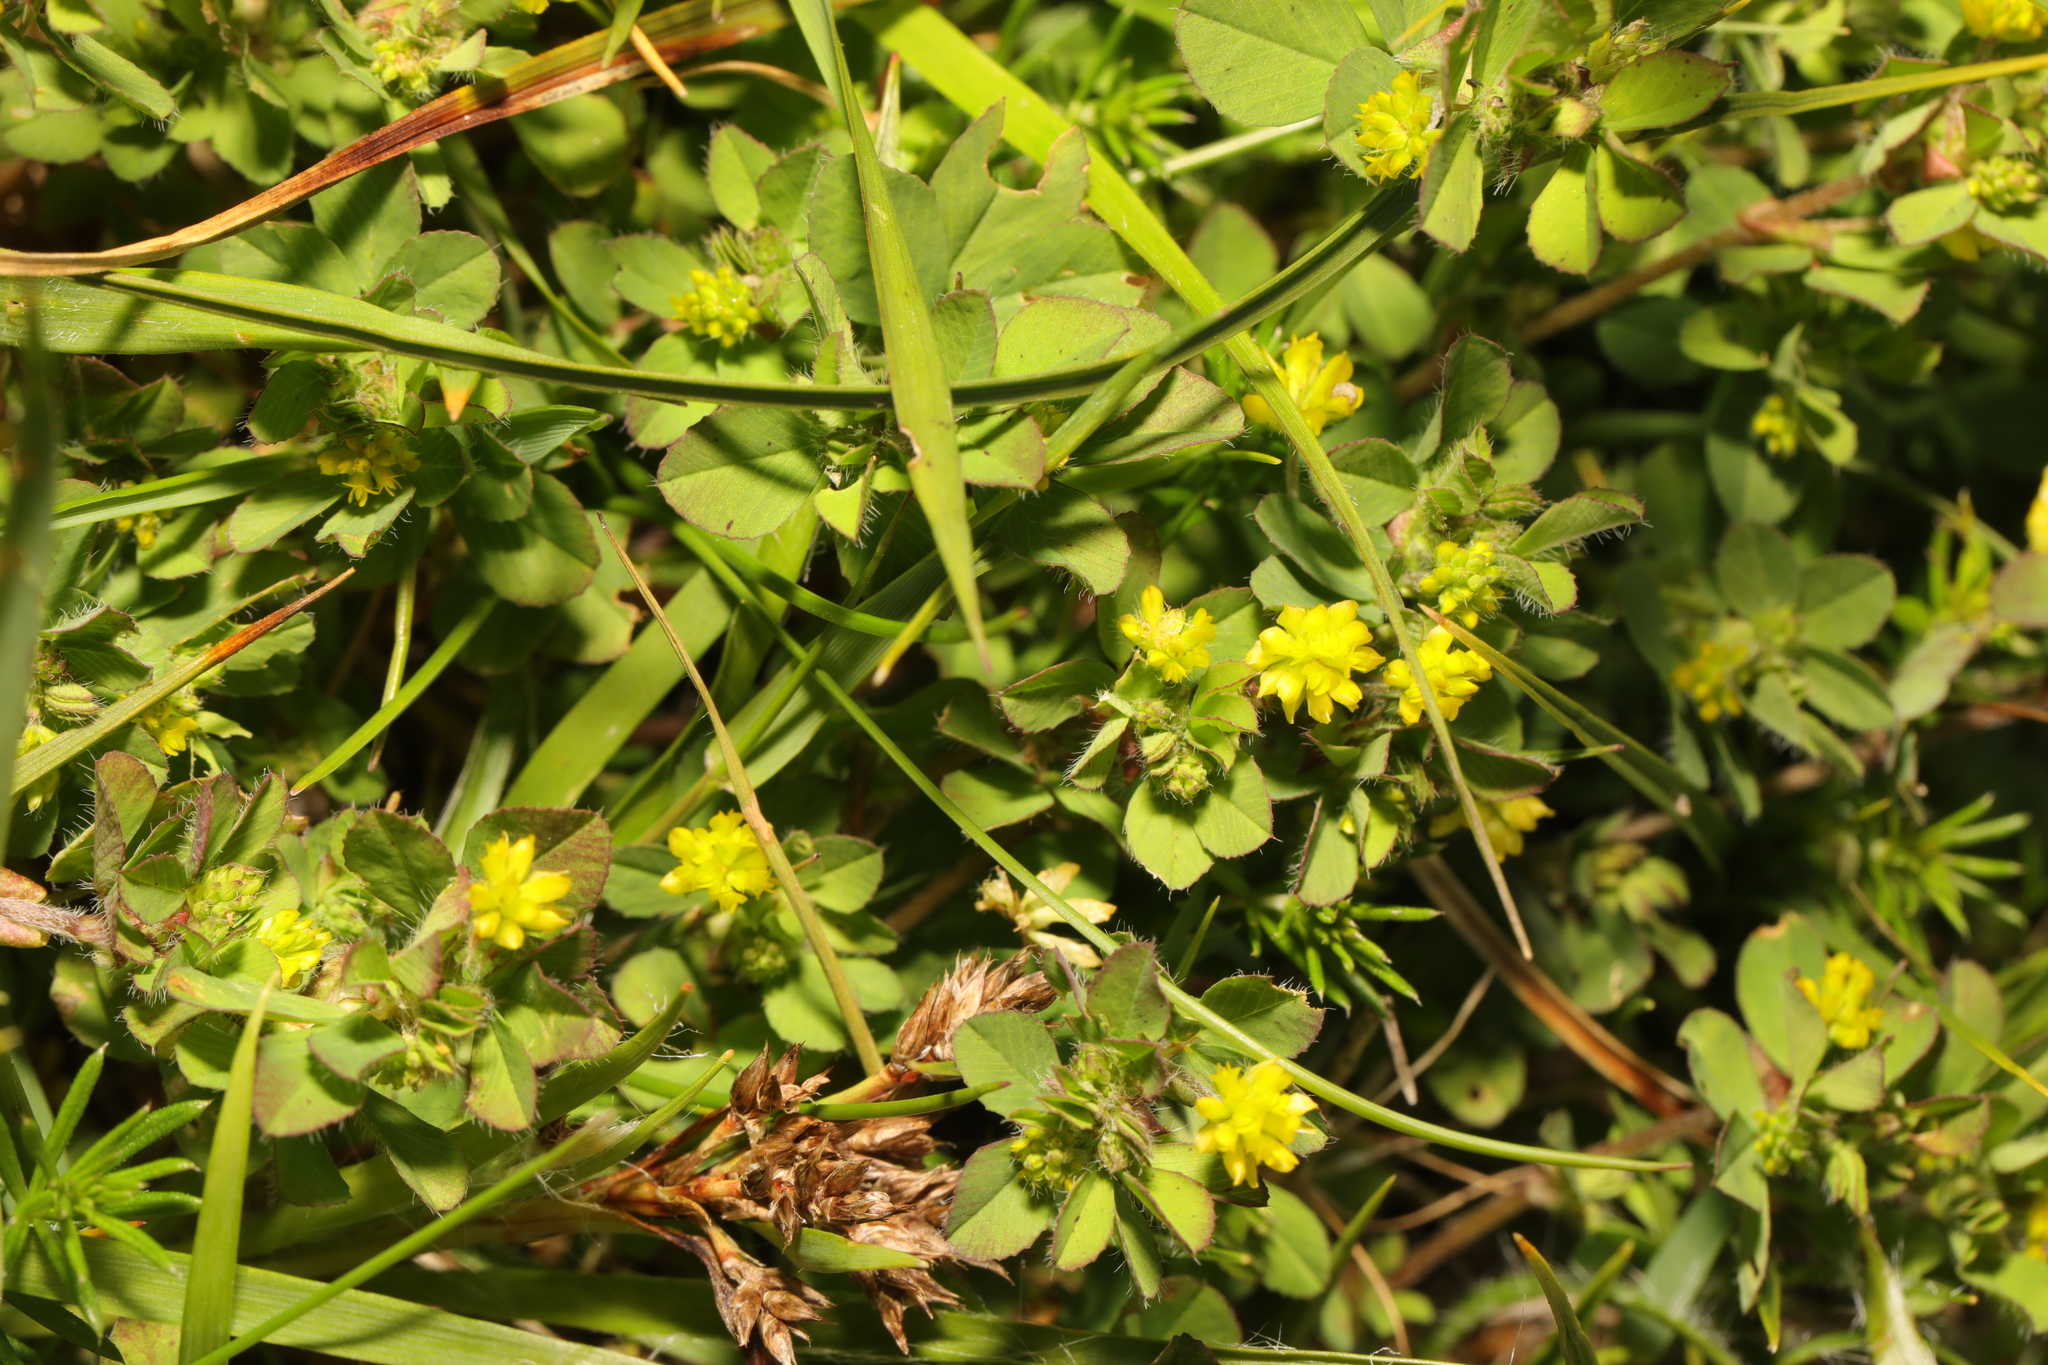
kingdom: Plantae
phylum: Tracheophyta
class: Magnoliopsida
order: Fabales
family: Fabaceae
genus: Trifolium
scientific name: Trifolium dubium
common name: Suckling clover
